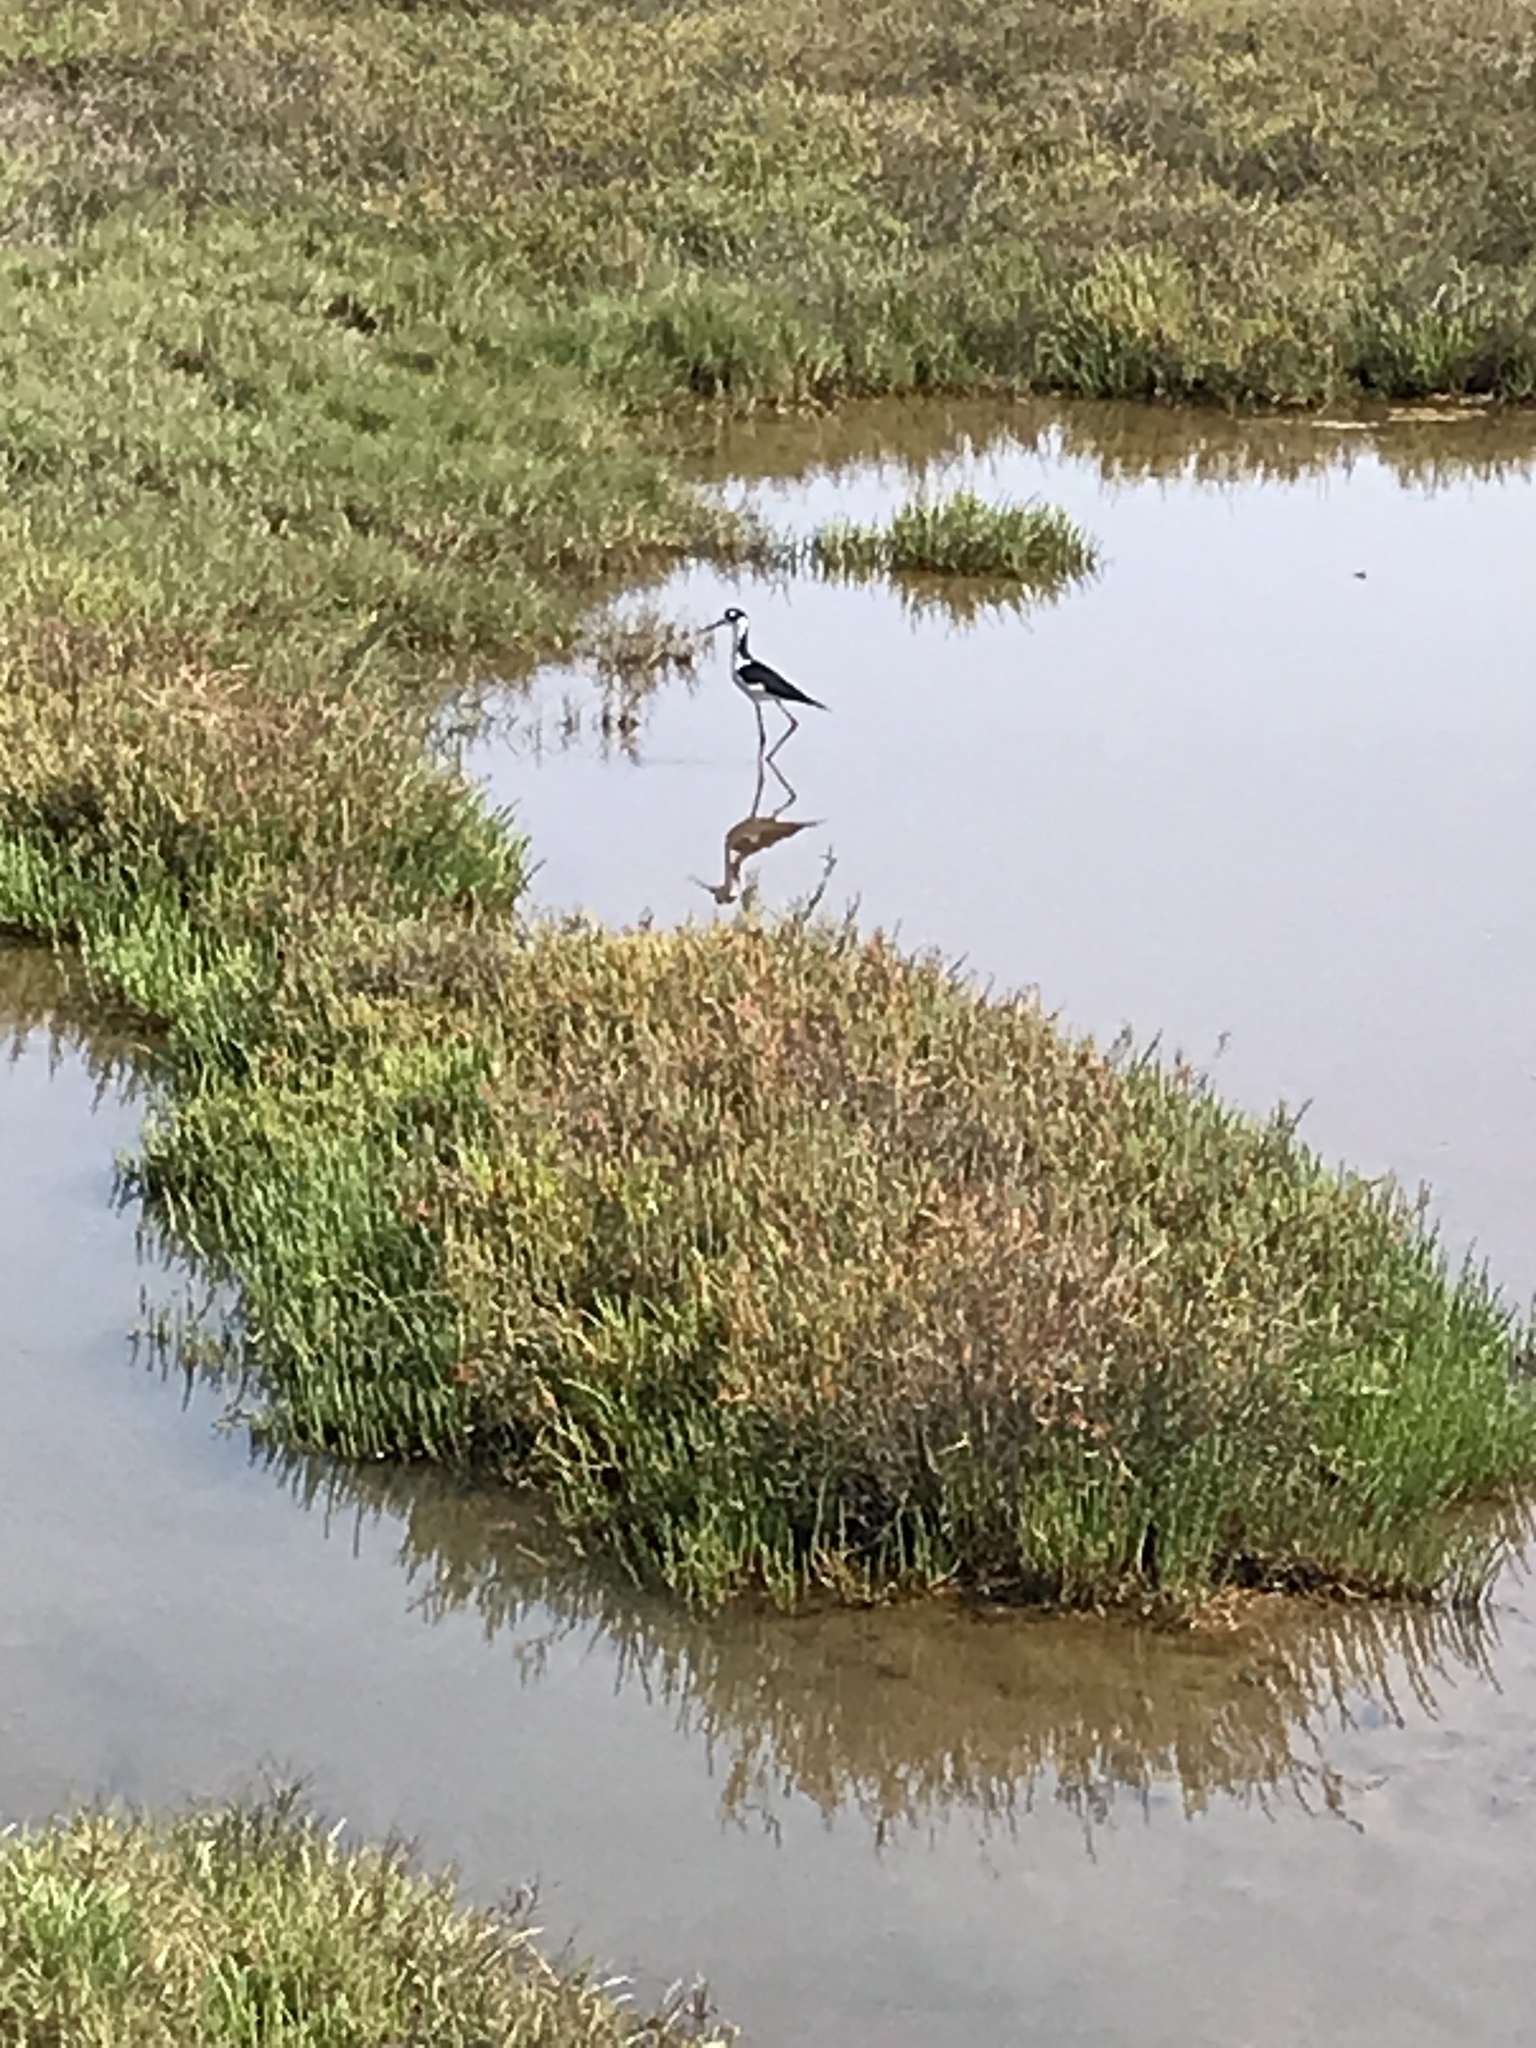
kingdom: Animalia
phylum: Chordata
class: Aves
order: Charadriiformes
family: Recurvirostridae
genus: Himantopus
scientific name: Himantopus mexicanus
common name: Black-necked stilt
